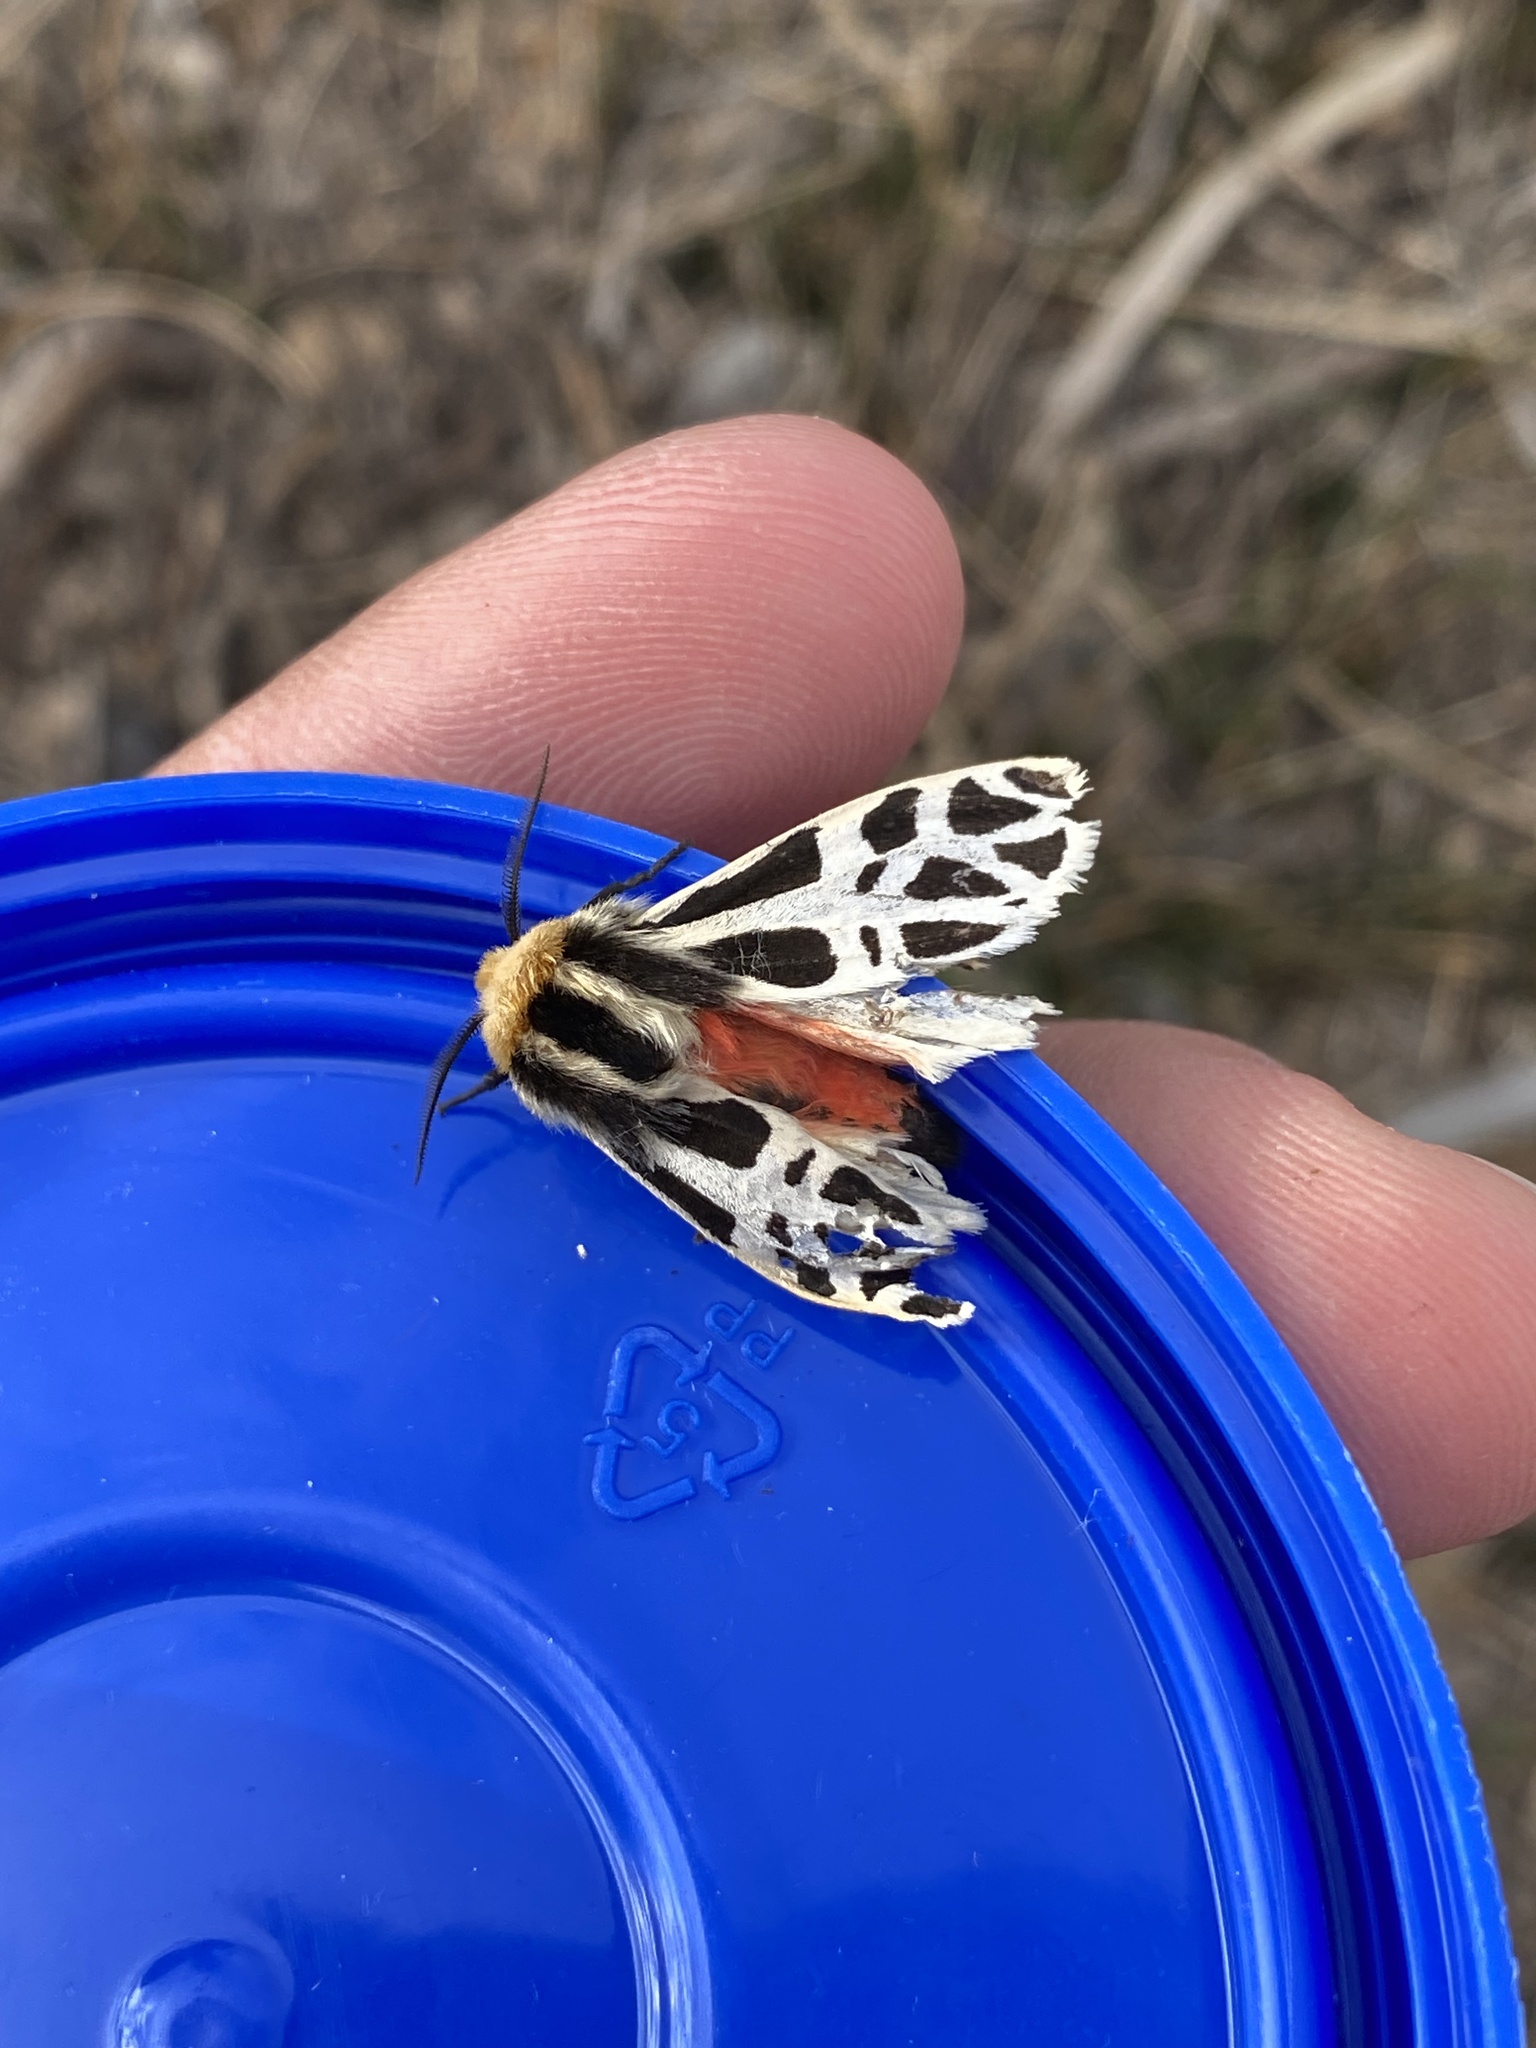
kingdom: Animalia
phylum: Arthropoda
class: Insecta
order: Lepidoptera
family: Erebidae
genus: Apantesis
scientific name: Apantesis
